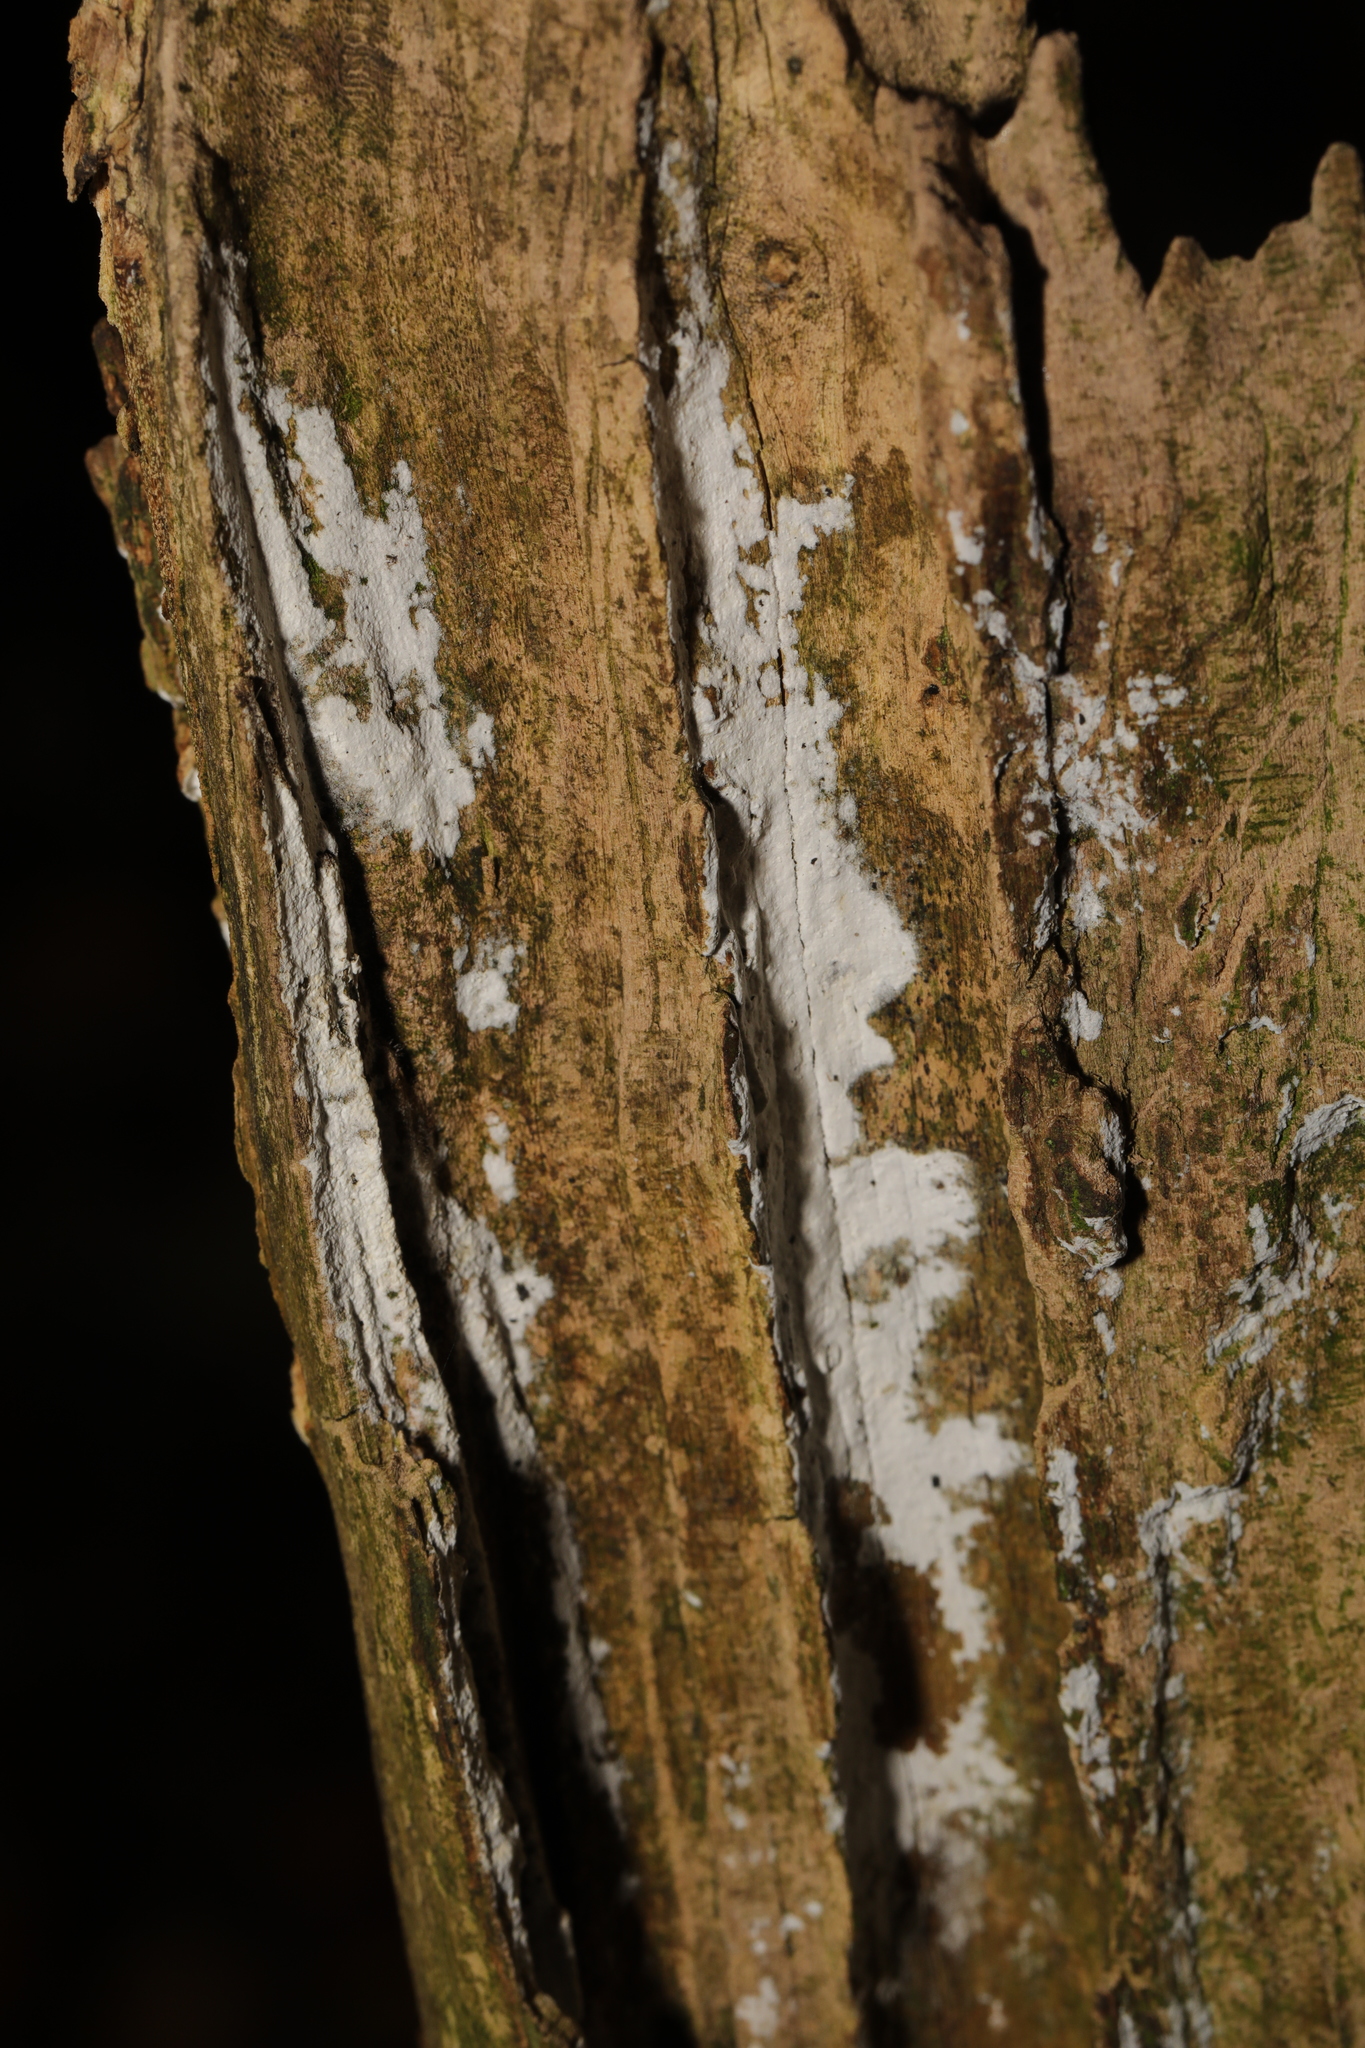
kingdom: Fungi
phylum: Basidiomycota
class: Agaricomycetes
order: Corticiales
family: Corticiaceae
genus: Lyomyces
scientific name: Lyomyces sambuci
